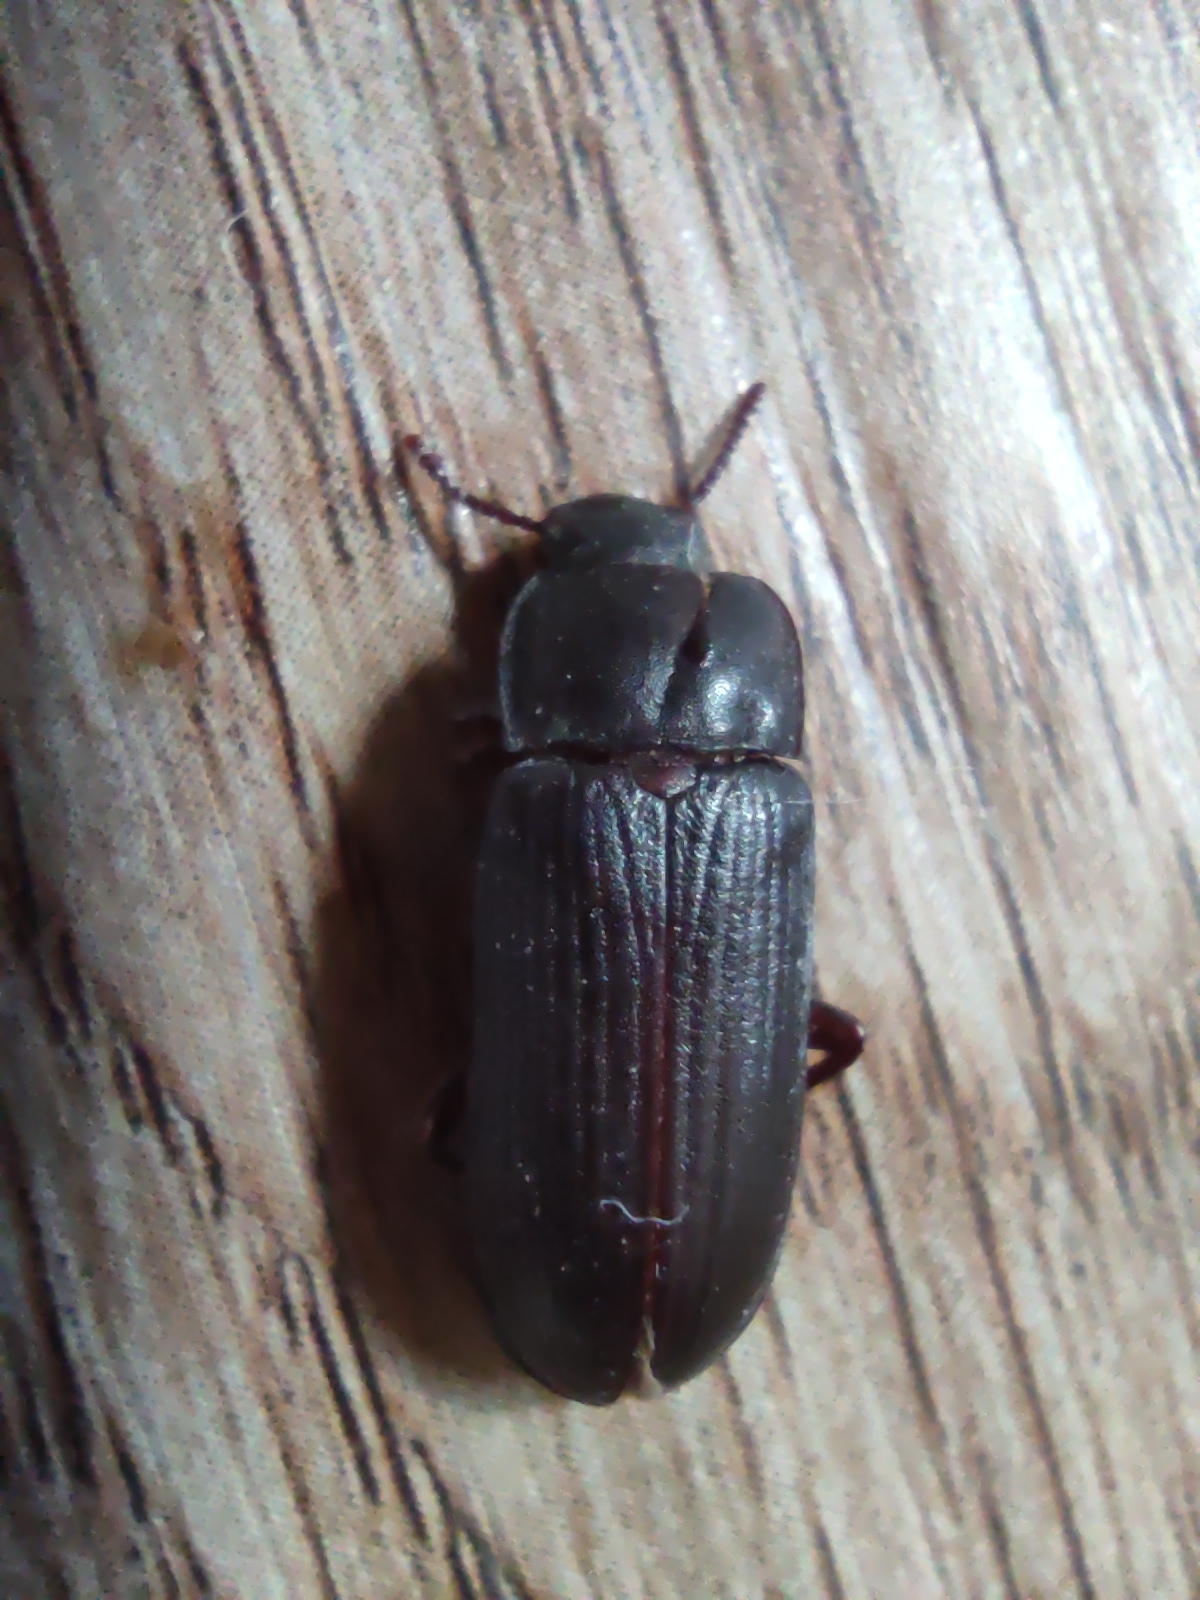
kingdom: Animalia
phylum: Arthropoda
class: Insecta
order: Coleoptera
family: Tenebrionidae
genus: Tenebrio
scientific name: Tenebrio molitor
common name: Hardback beetle
